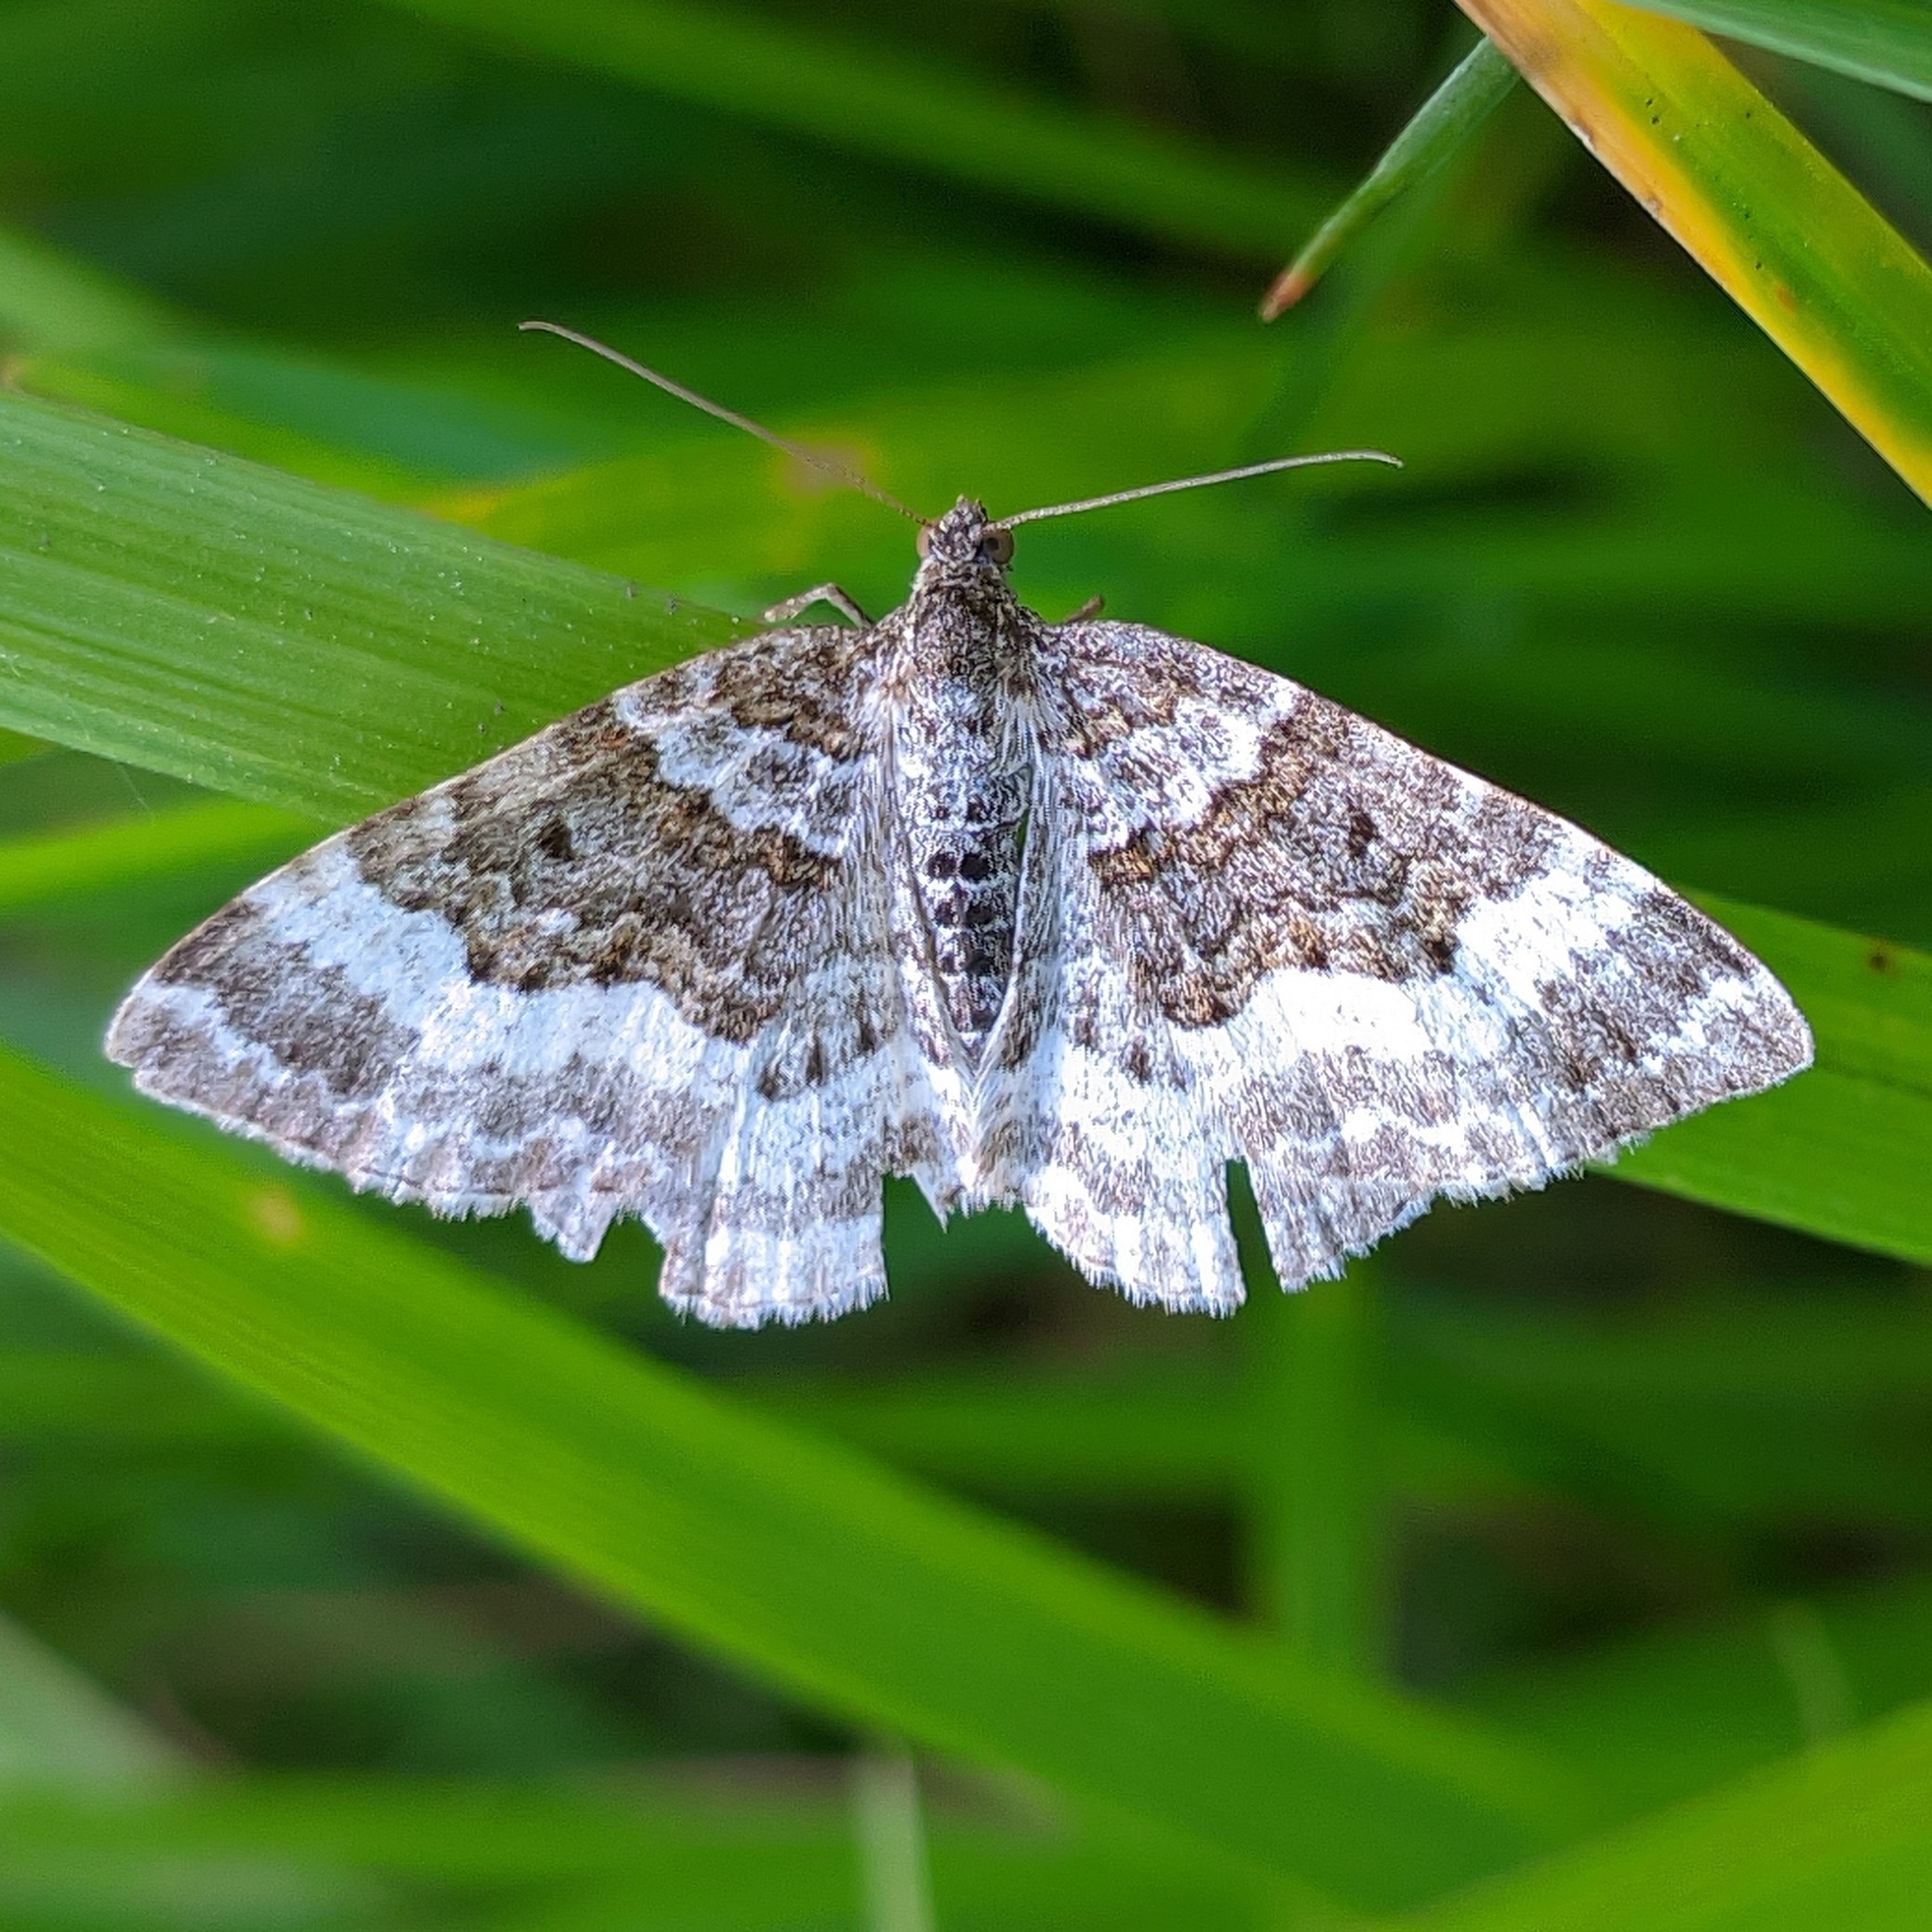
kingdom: Animalia
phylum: Arthropoda
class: Insecta
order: Lepidoptera
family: Geometridae
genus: Epirrhoe
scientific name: Epirrhoe alternata
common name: Common carpet
